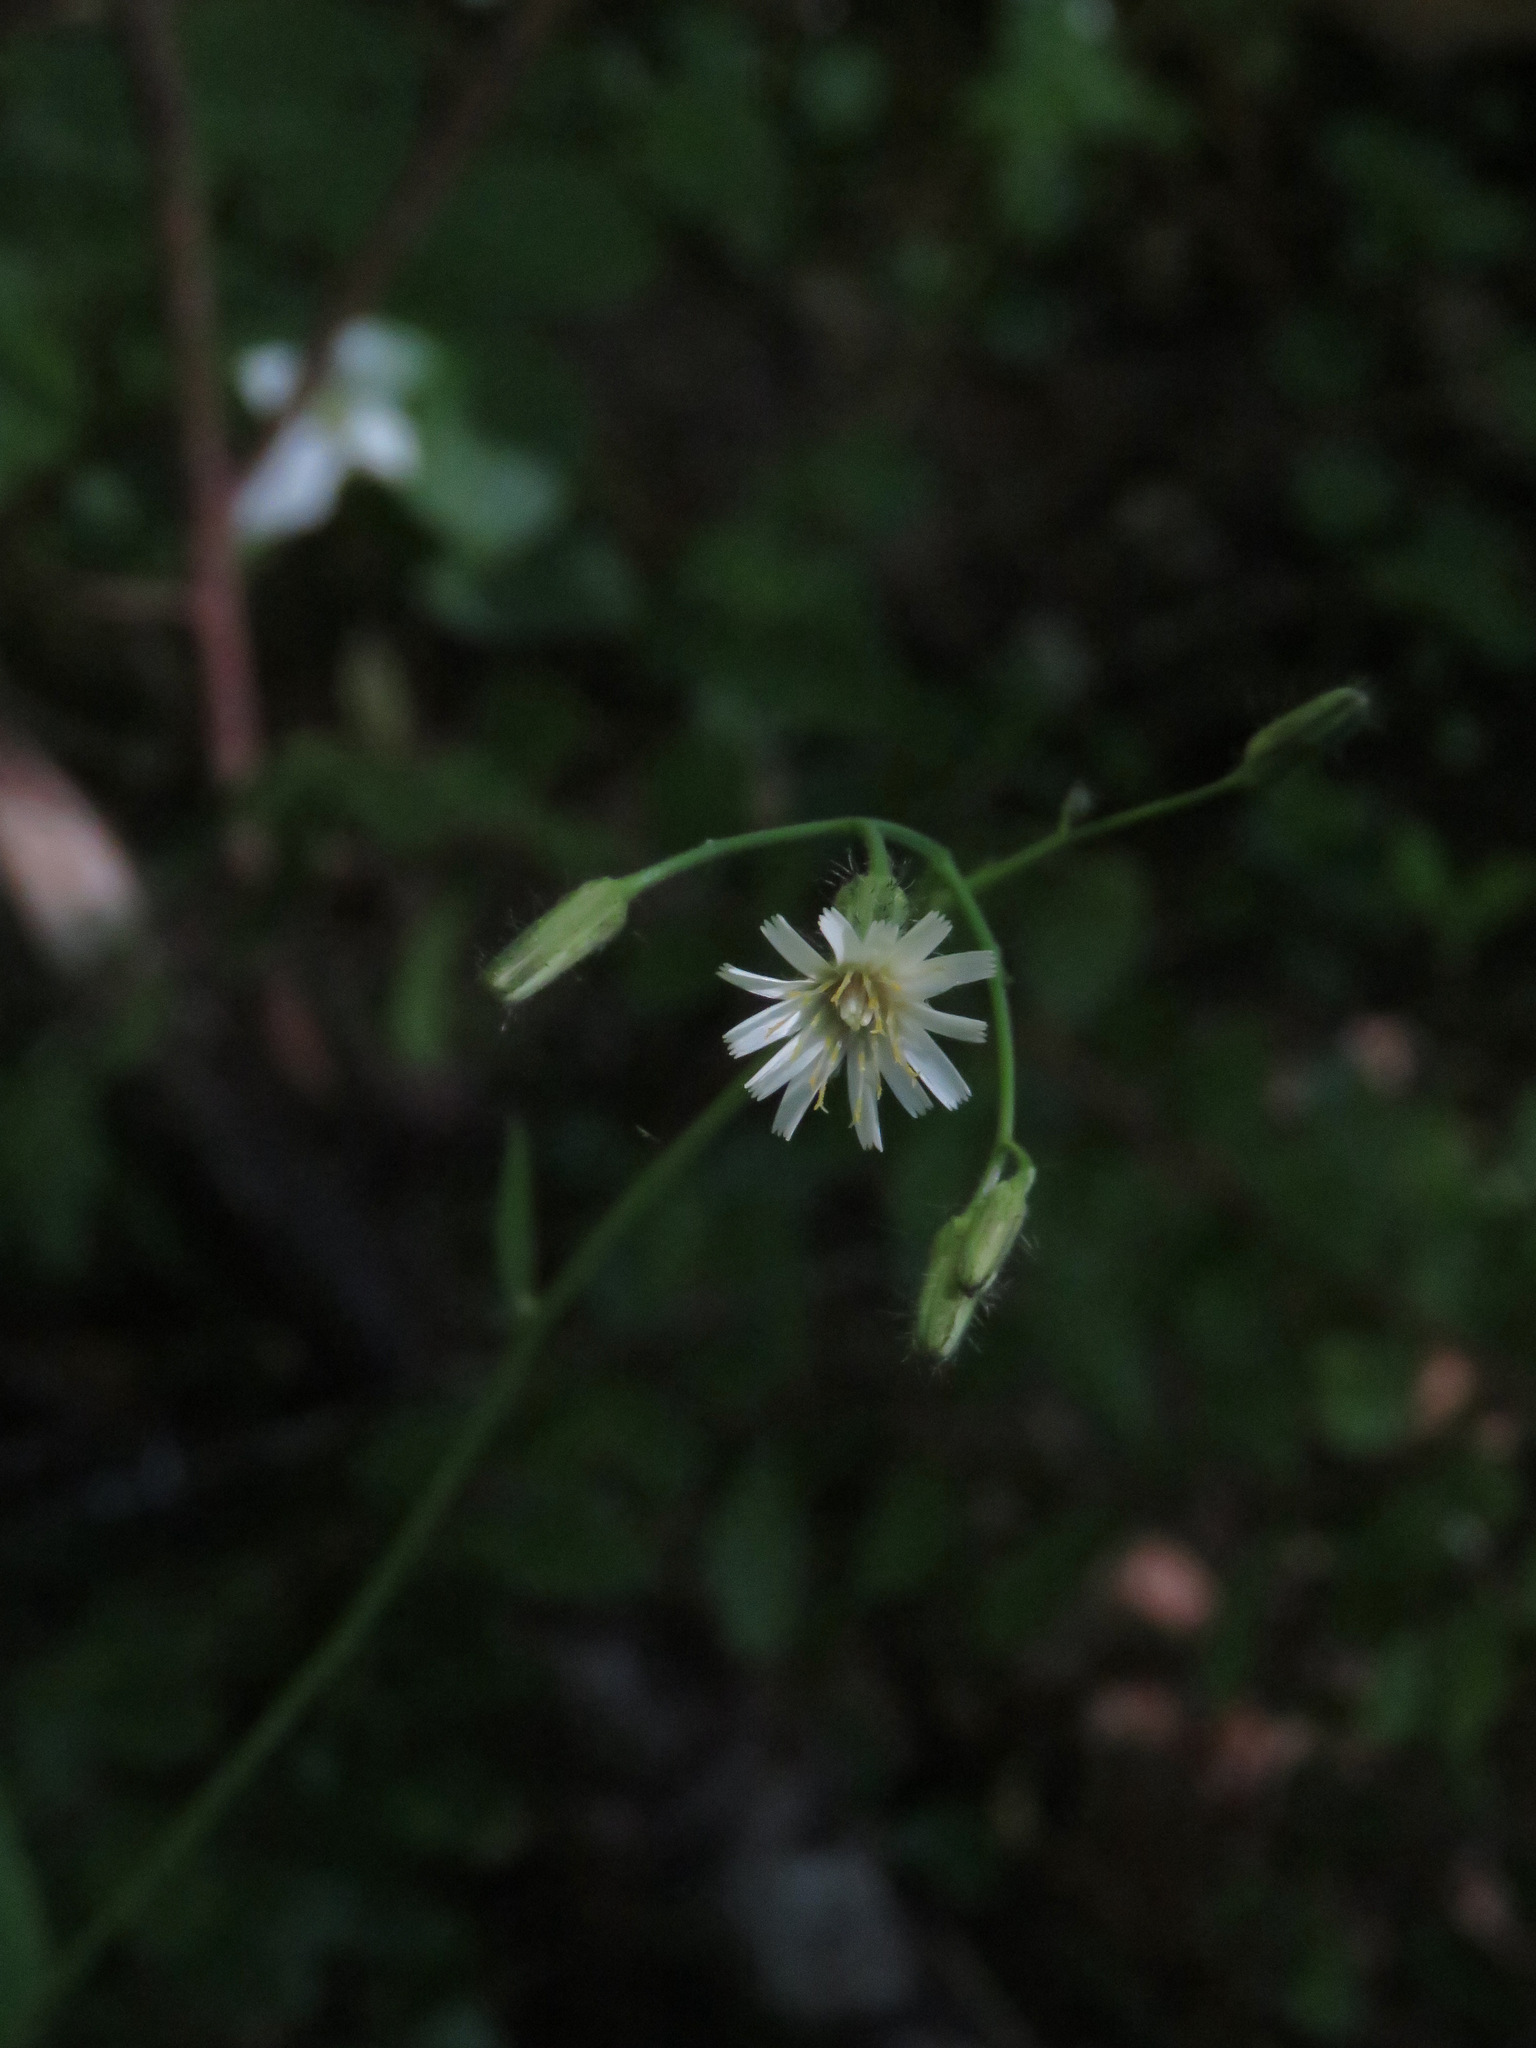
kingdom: Plantae
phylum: Tracheophyta
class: Magnoliopsida
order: Asterales
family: Asteraceae
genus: Hieracium
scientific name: Hieracium albiflorum
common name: White hawkweed
